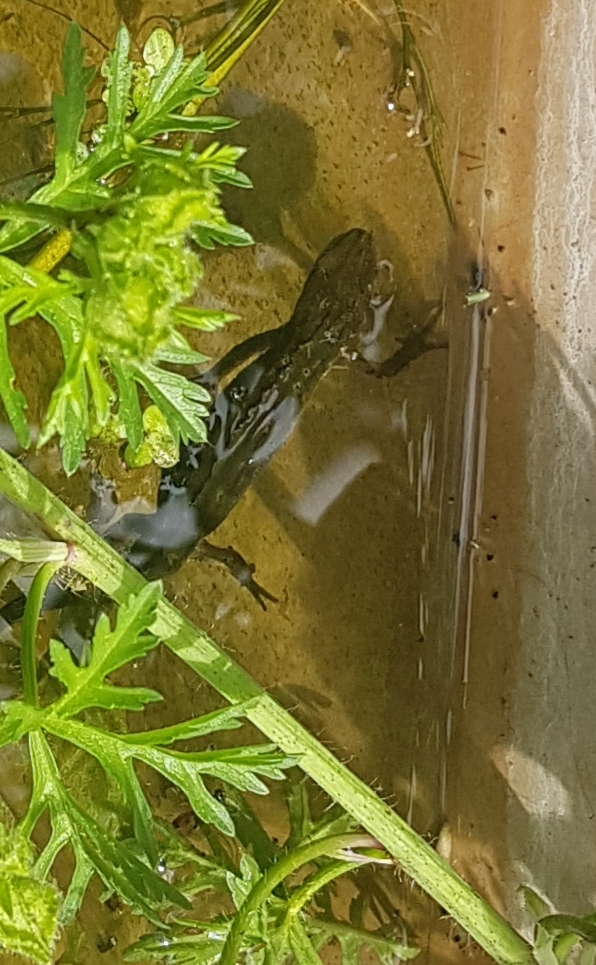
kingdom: Animalia
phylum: Chordata
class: Amphibia
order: Caudata
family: Salamandridae
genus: Lissotriton
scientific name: Lissotriton vulgaris
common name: Smooth newt
